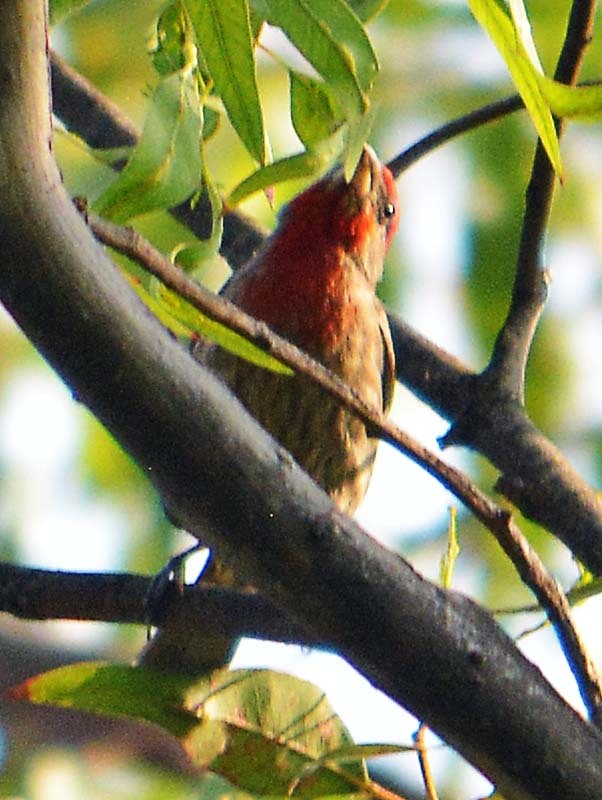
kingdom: Animalia
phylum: Chordata
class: Aves
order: Passeriformes
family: Fringillidae
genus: Haemorhous
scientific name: Haemorhous mexicanus
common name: House finch
